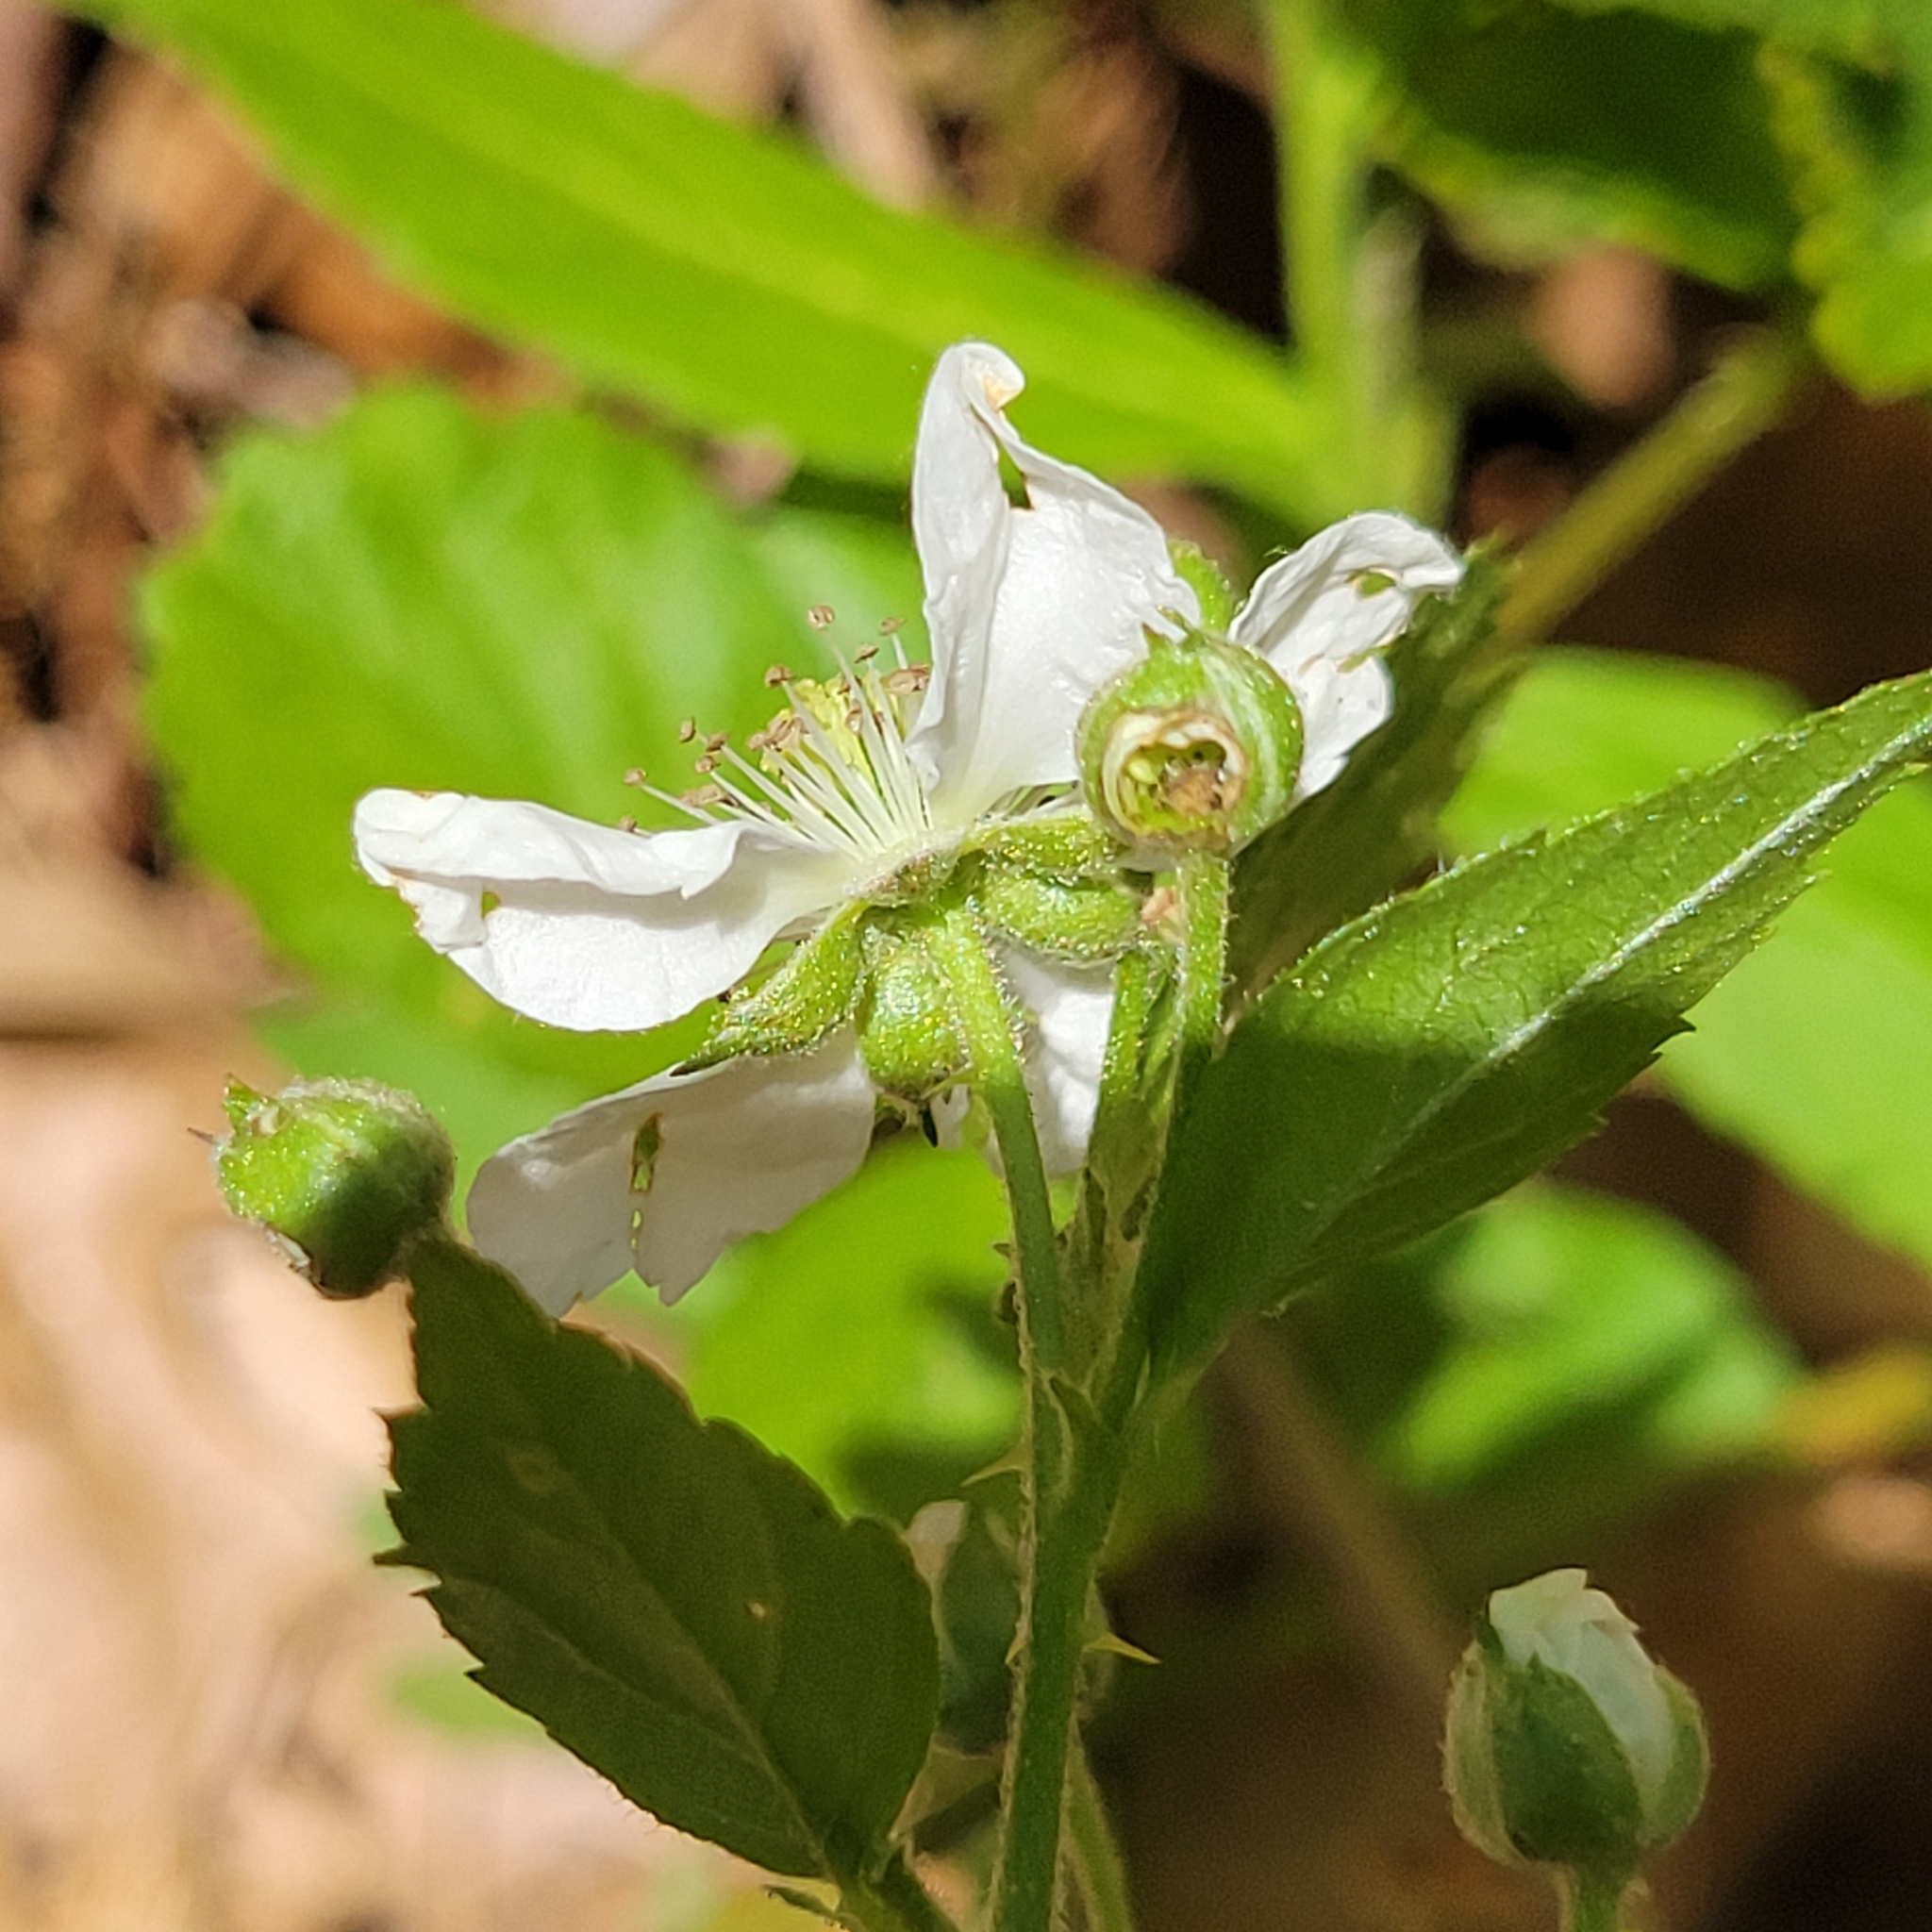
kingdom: Plantae
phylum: Tracheophyta
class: Magnoliopsida
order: Rosales
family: Rosaceae
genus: Rubus
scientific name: Rubus flagellaris
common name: American dewberry
